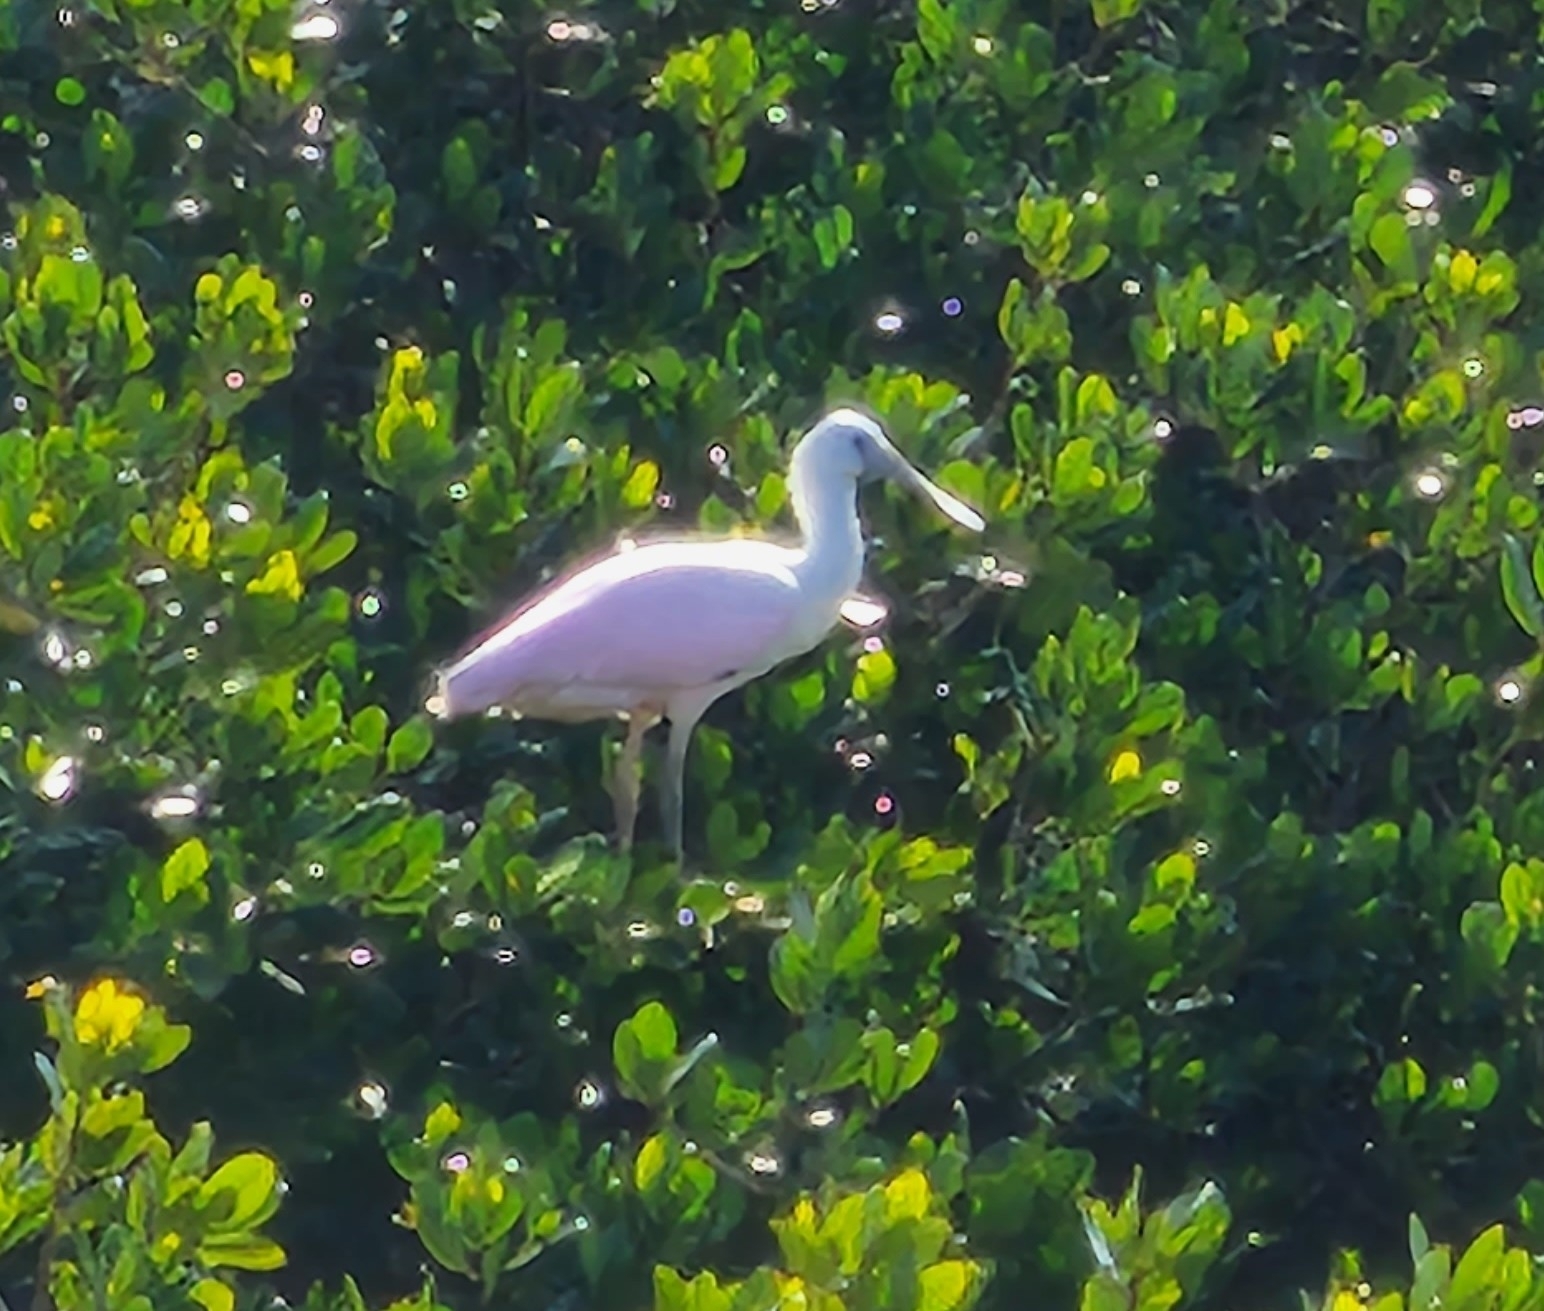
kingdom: Animalia
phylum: Chordata
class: Aves
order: Pelecaniformes
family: Threskiornithidae
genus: Platalea
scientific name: Platalea ajaja
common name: Roseate spoonbill
